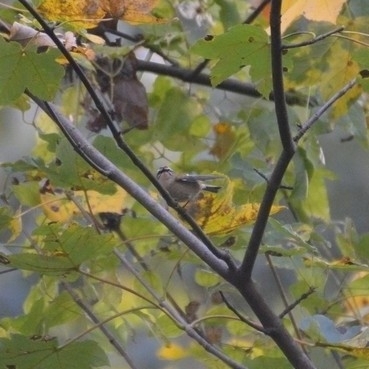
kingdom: Animalia
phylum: Chordata
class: Aves
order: Passeriformes
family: Regulidae
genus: Regulus
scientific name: Regulus ignicapilla
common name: Firecrest
